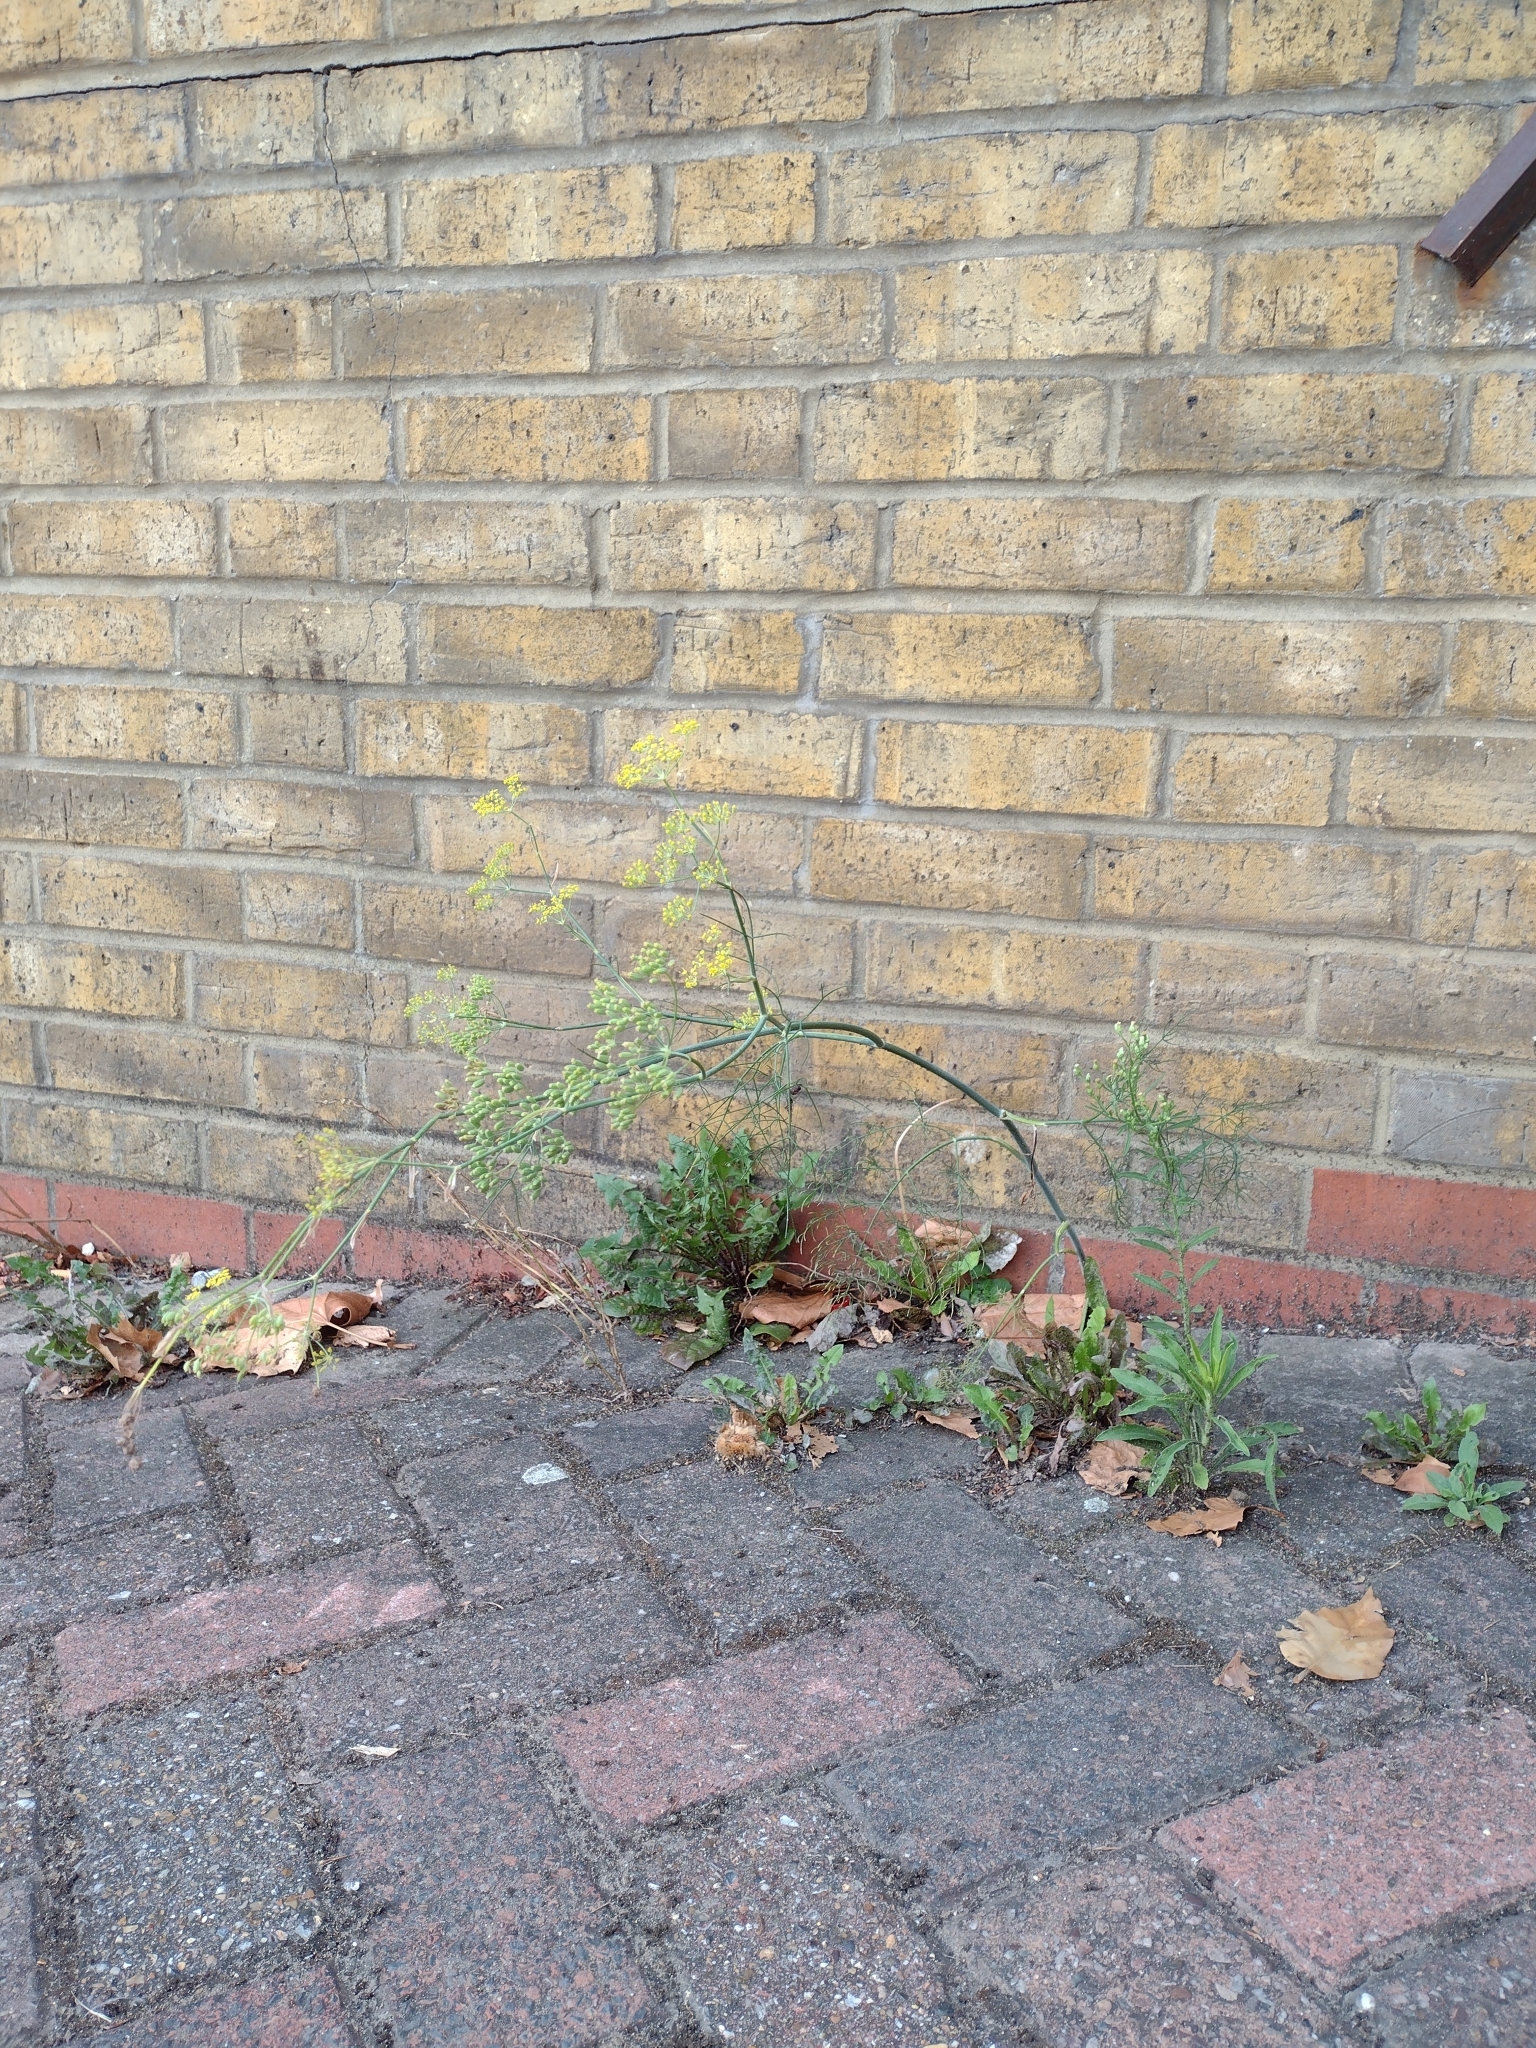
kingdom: Plantae
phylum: Tracheophyta
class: Magnoliopsida
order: Apiales
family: Apiaceae
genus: Foeniculum
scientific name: Foeniculum vulgare
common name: Fennel
